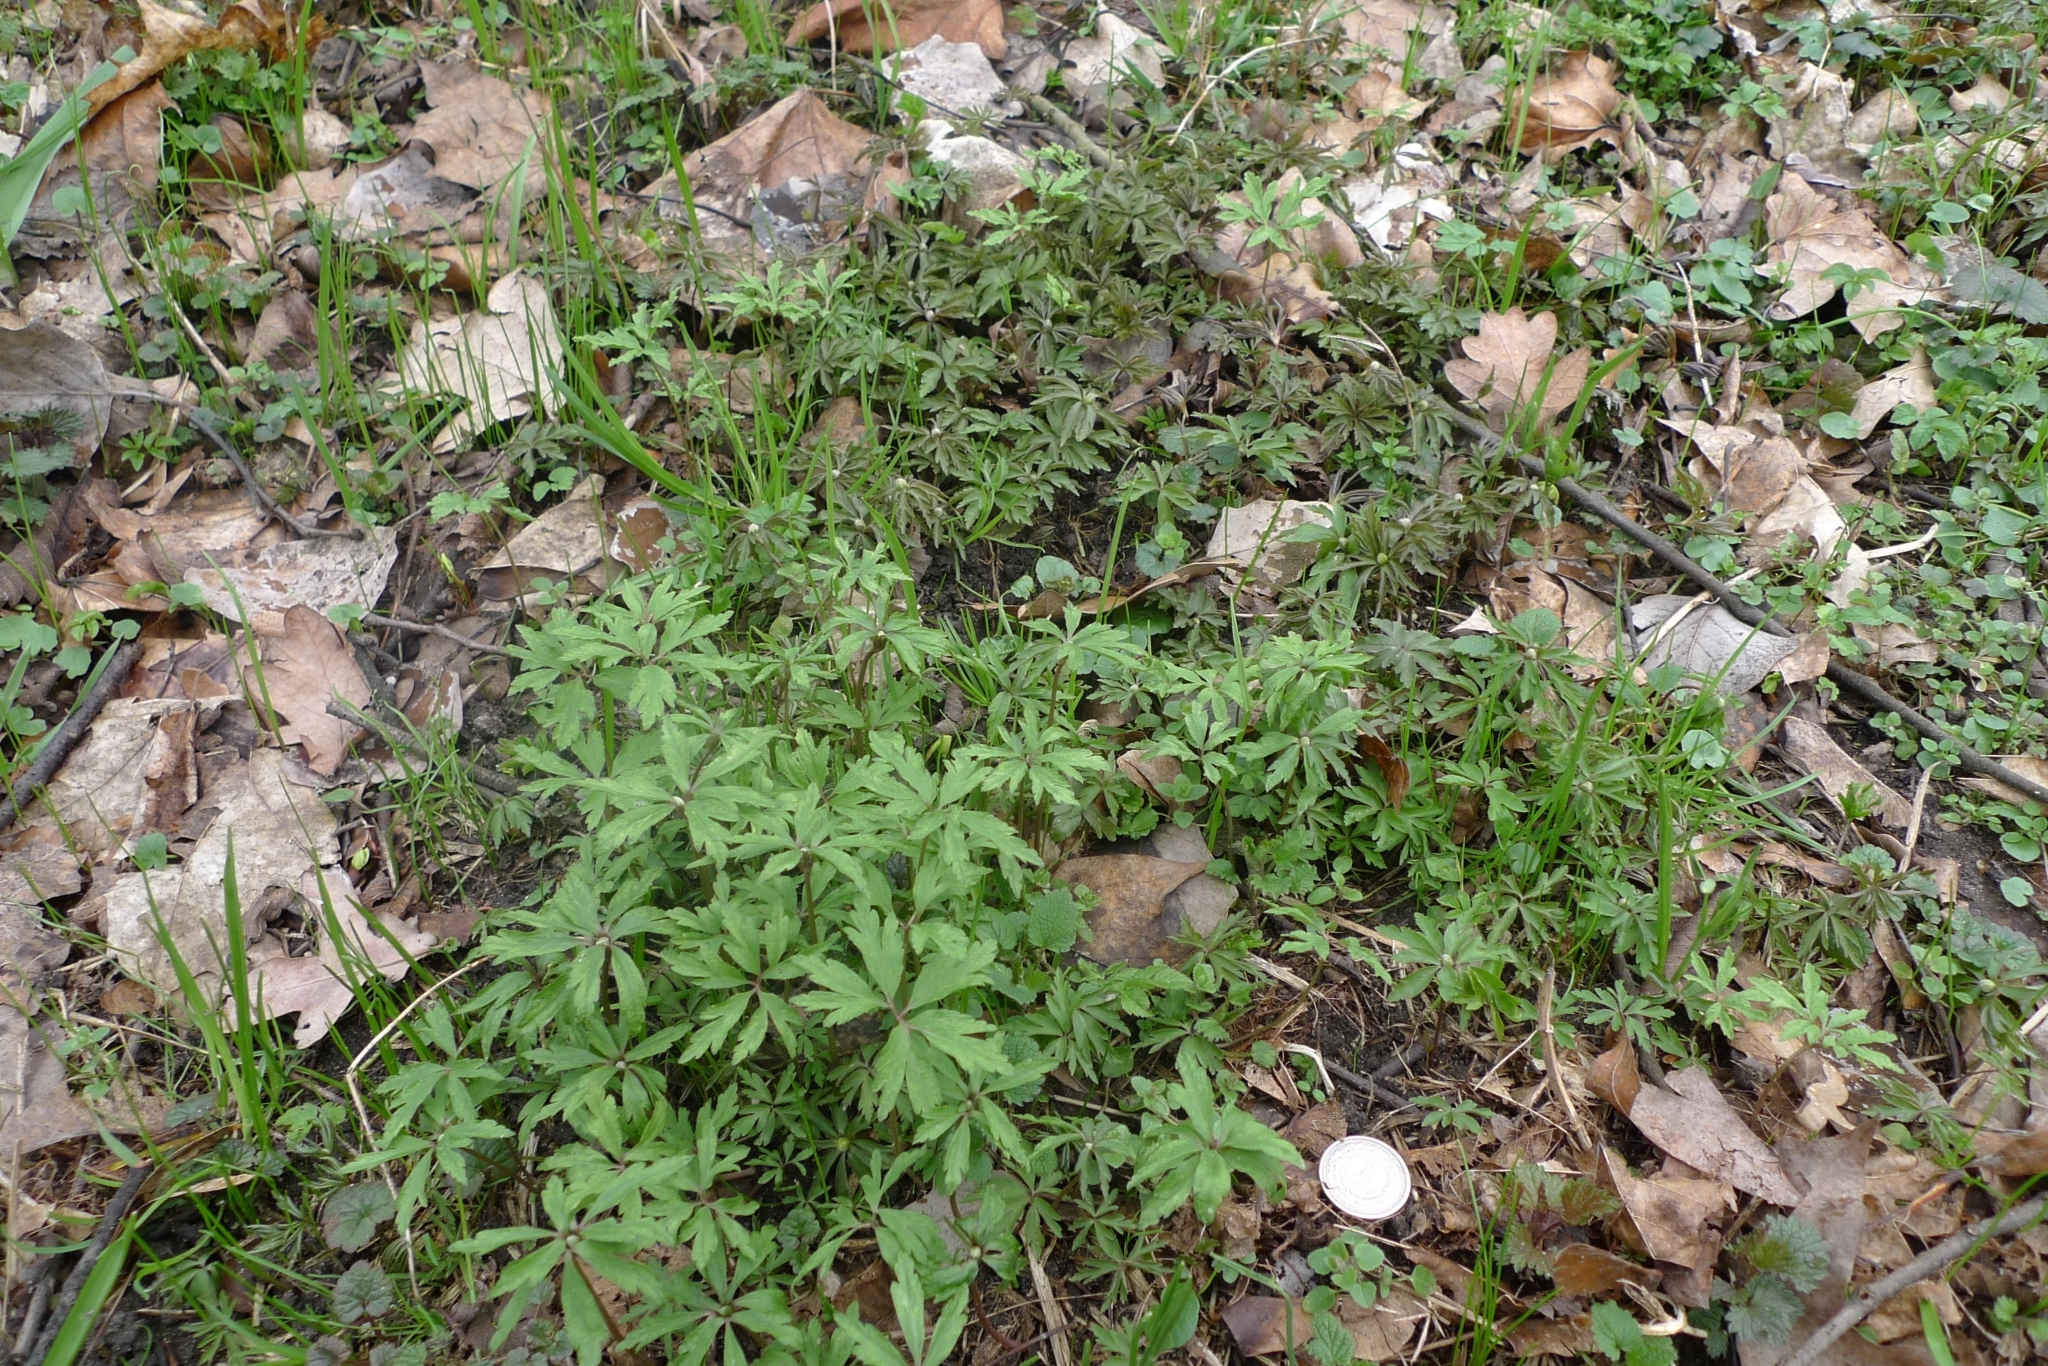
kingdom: Plantae
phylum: Tracheophyta
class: Magnoliopsida
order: Ranunculales
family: Ranunculaceae
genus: Anemone
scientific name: Anemone ranunculoides
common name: Yellow anemone
